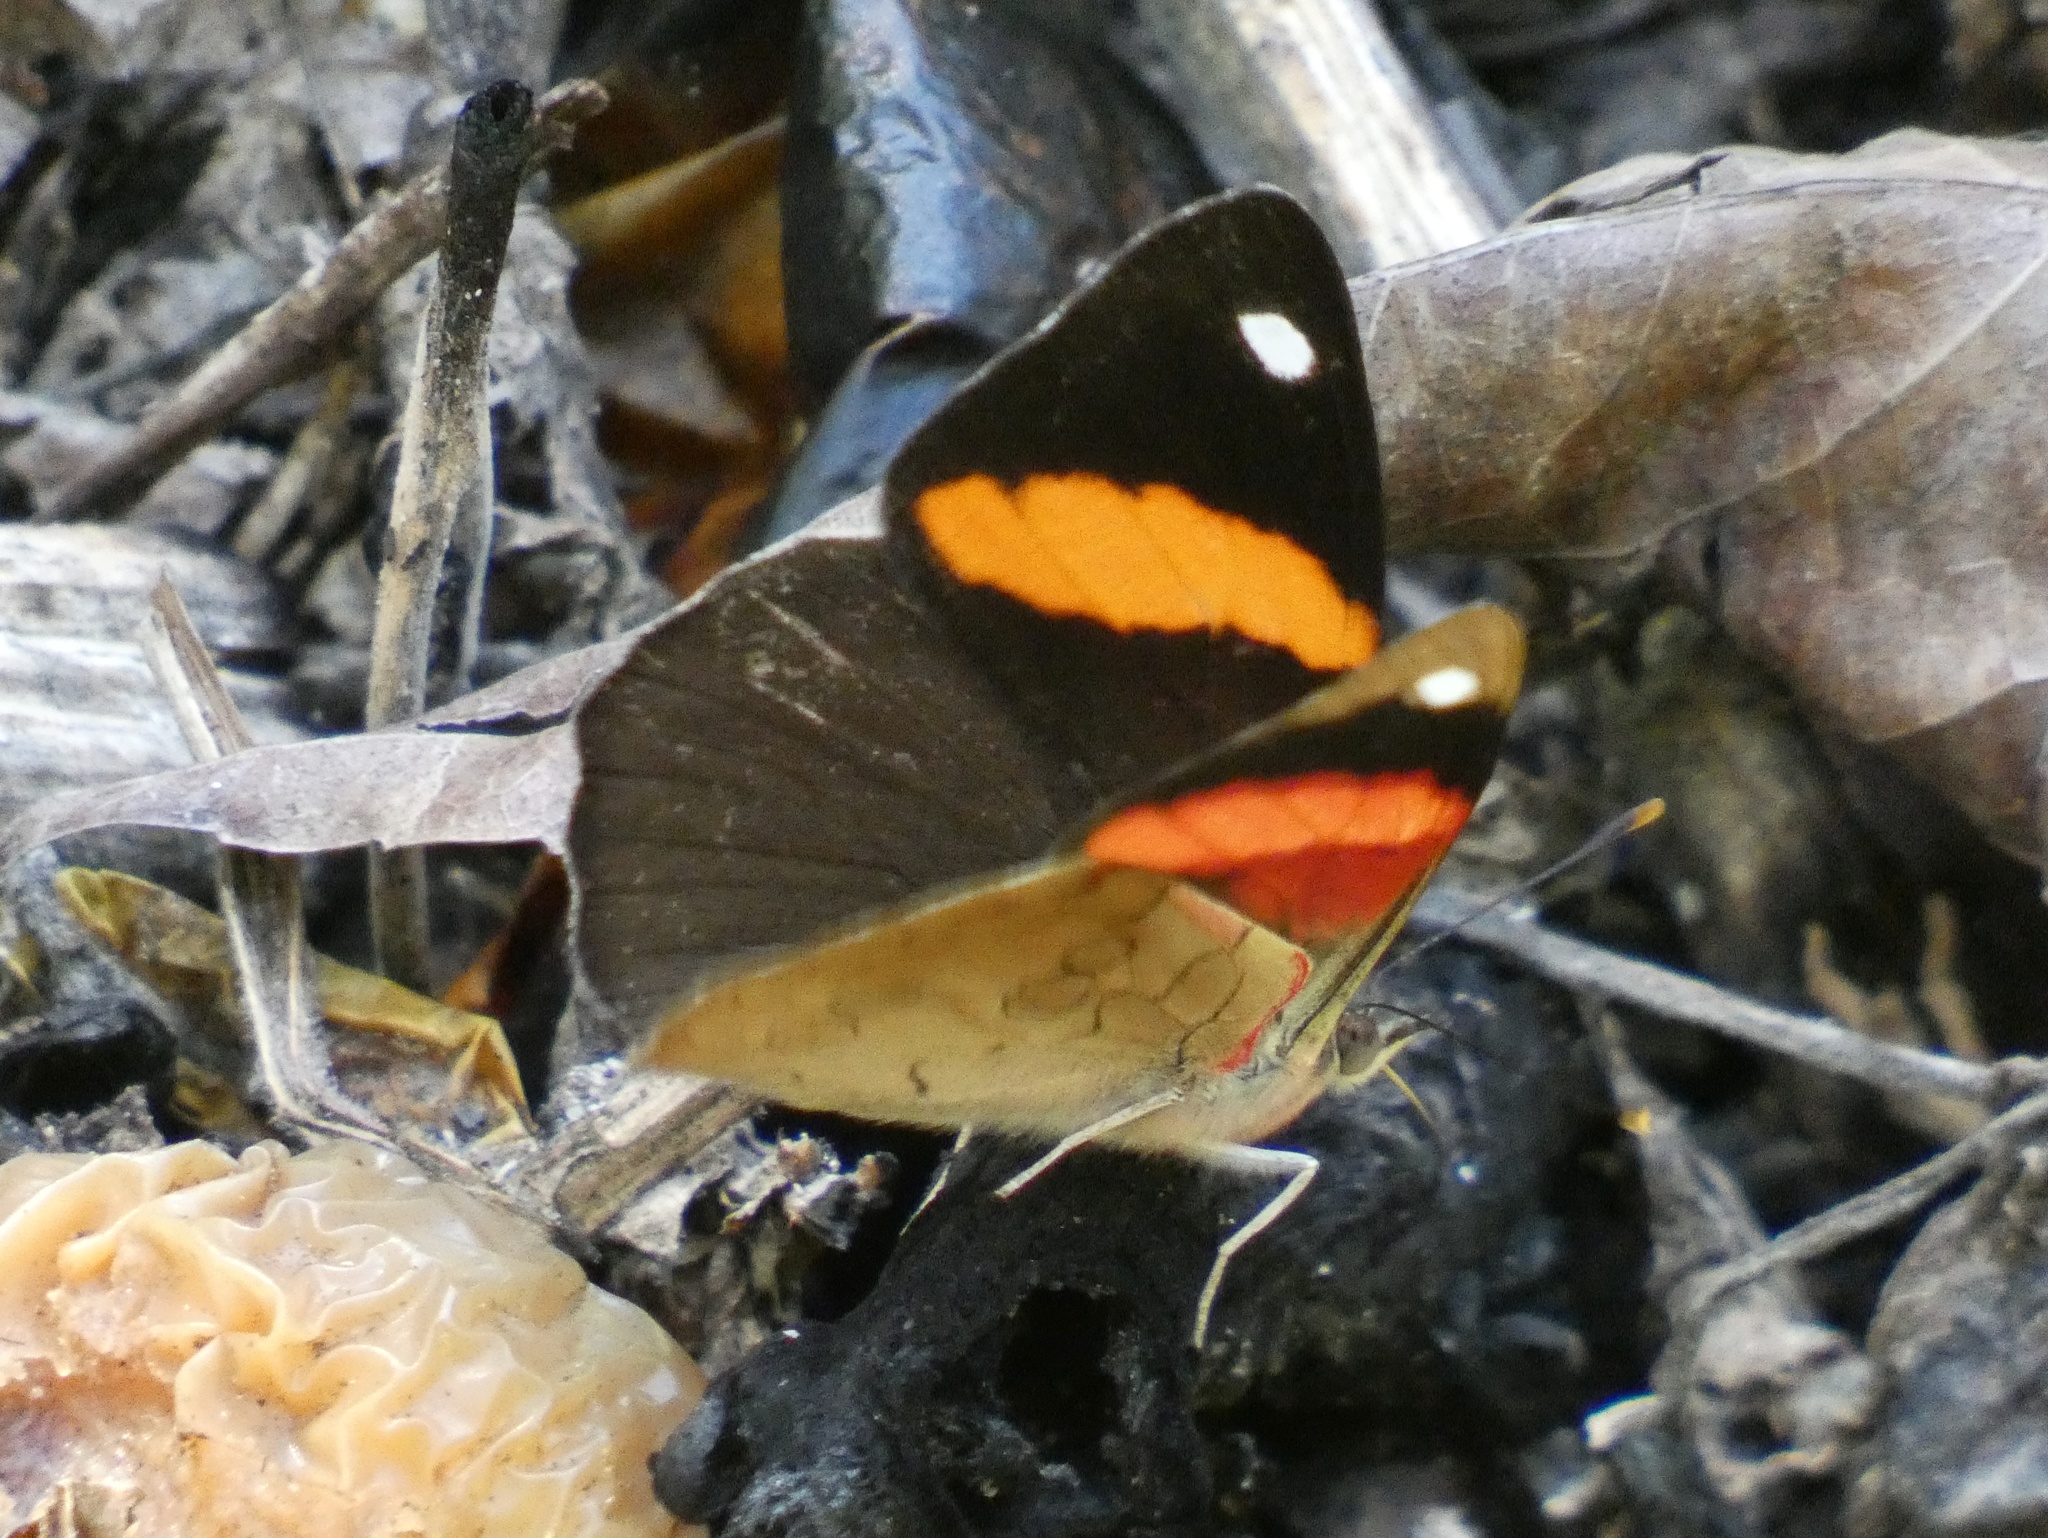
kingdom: Animalia
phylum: Arthropoda
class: Insecta
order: Lepidoptera
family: Nymphalidae
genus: Diaethria
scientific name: Diaethria pandama
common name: Orange-striped eighty-eight
